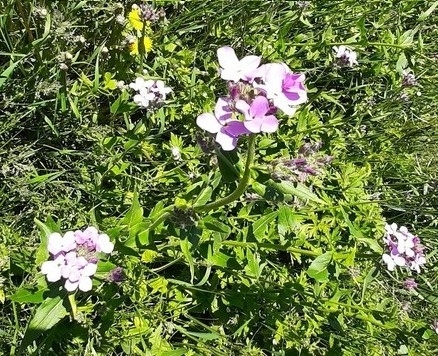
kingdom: Plantae
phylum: Tracheophyta
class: Magnoliopsida
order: Brassicales
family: Brassicaceae
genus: Hesperis
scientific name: Hesperis matronalis
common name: Dame's-violet
